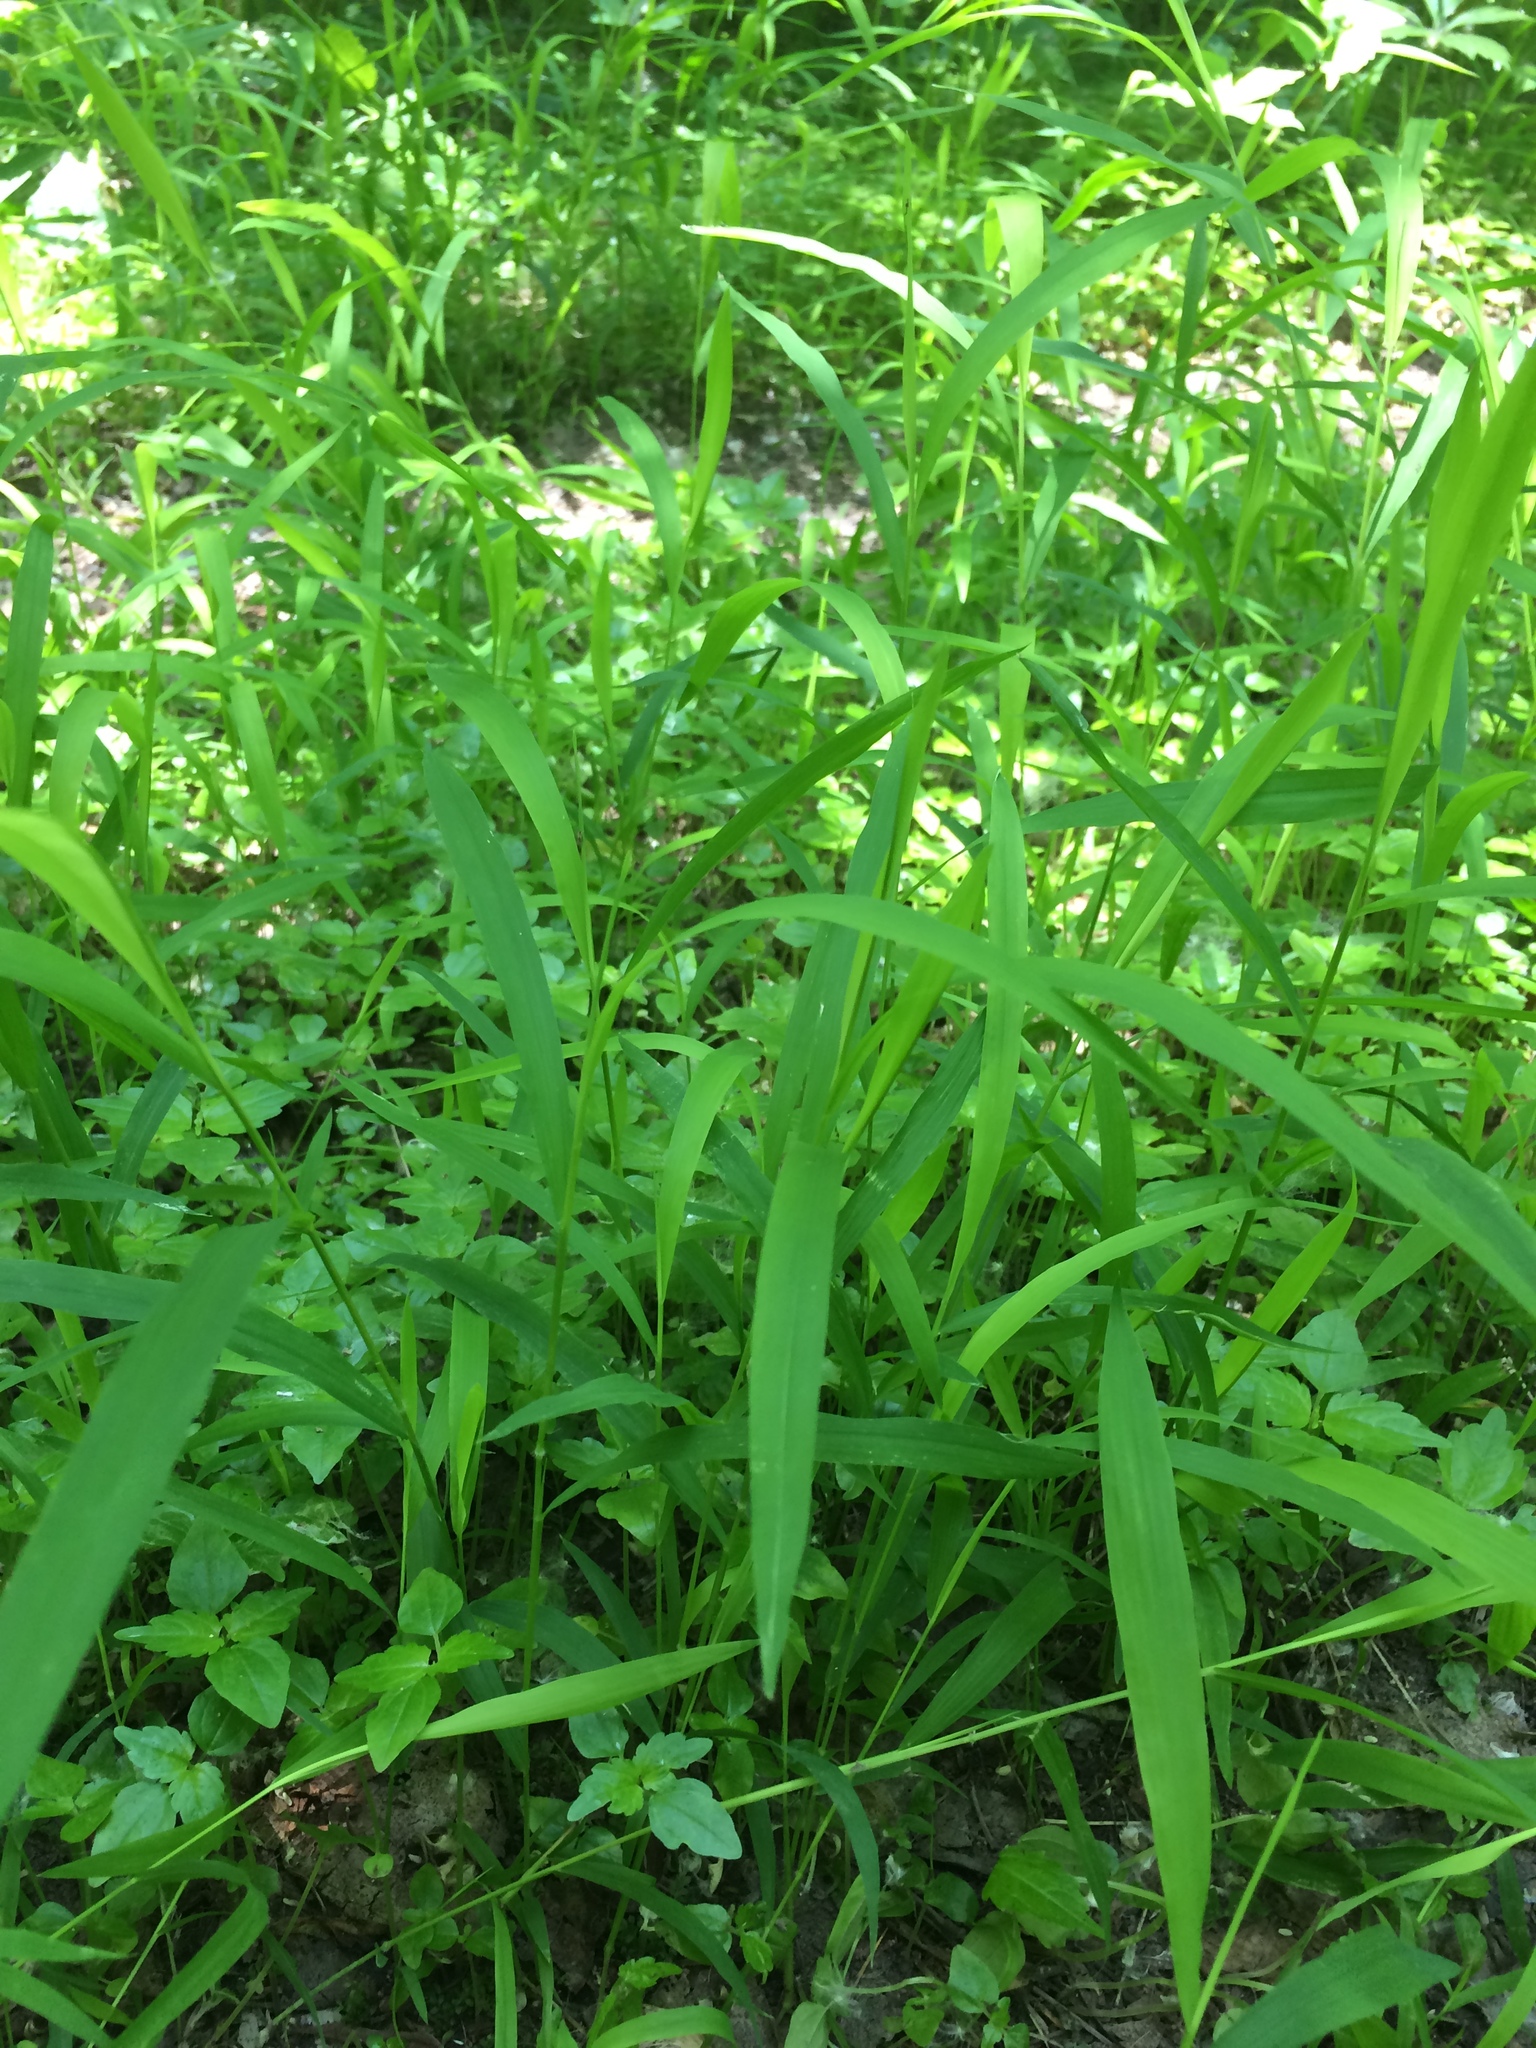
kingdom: Plantae
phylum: Tracheophyta
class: Liliopsida
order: Poales
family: Poaceae
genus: Leersia
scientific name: Leersia virginica
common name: White cutgrass
